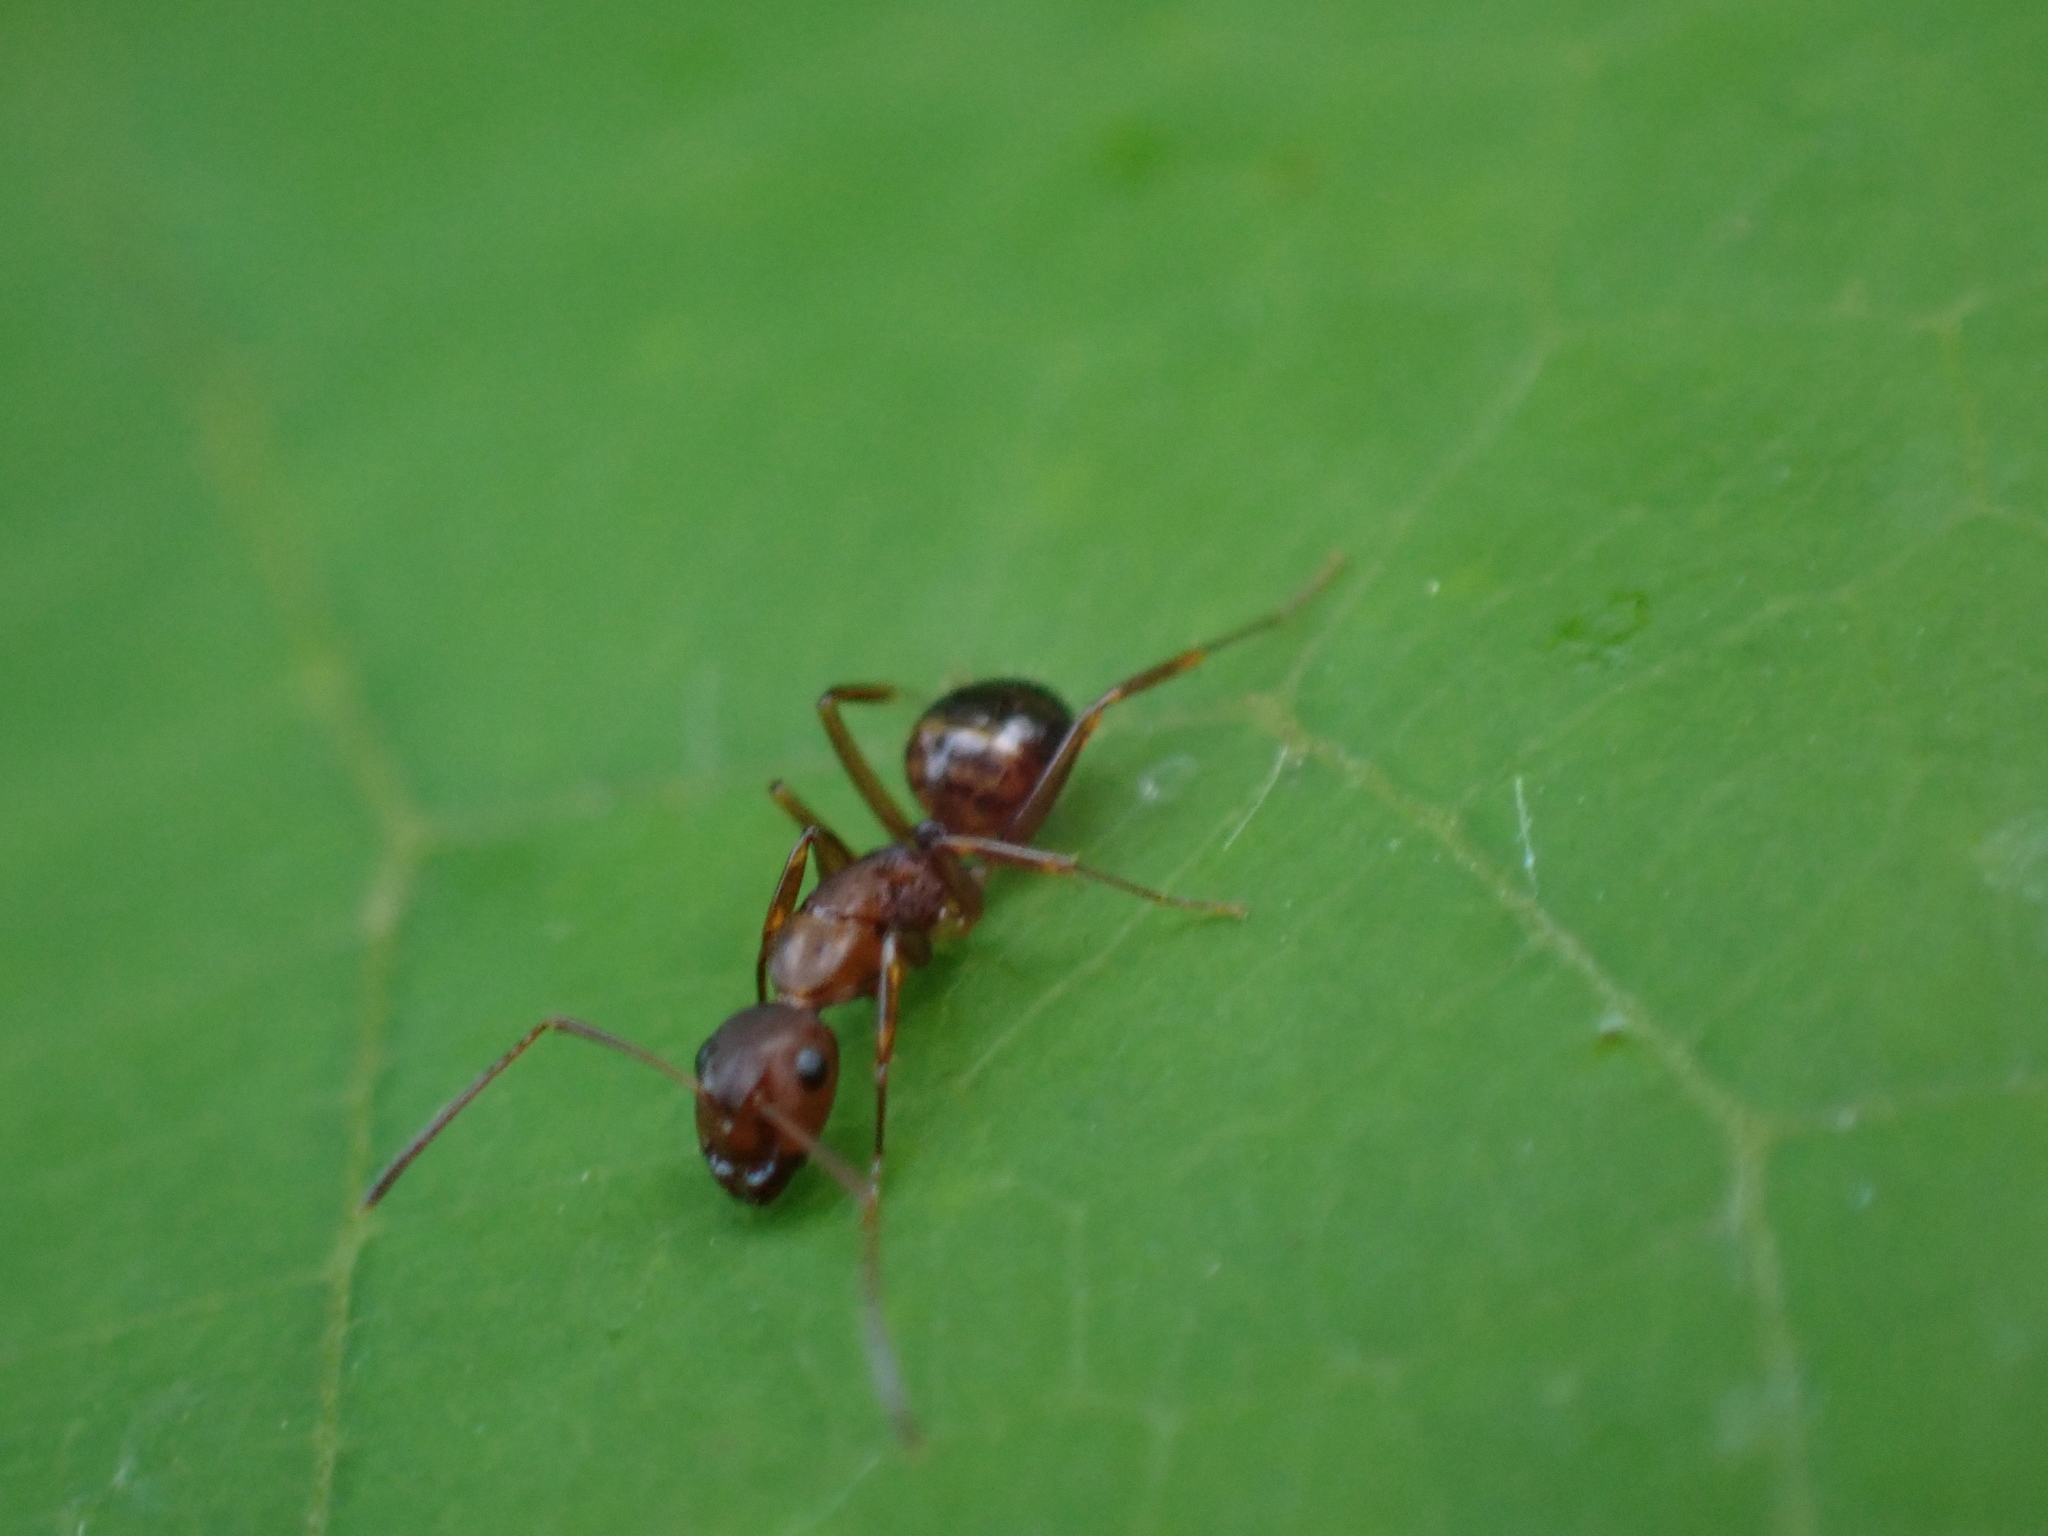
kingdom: Animalia
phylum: Arthropoda
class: Insecta
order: Hymenoptera
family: Formicidae
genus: Camponotus
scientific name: Camponotus subbarbatus
